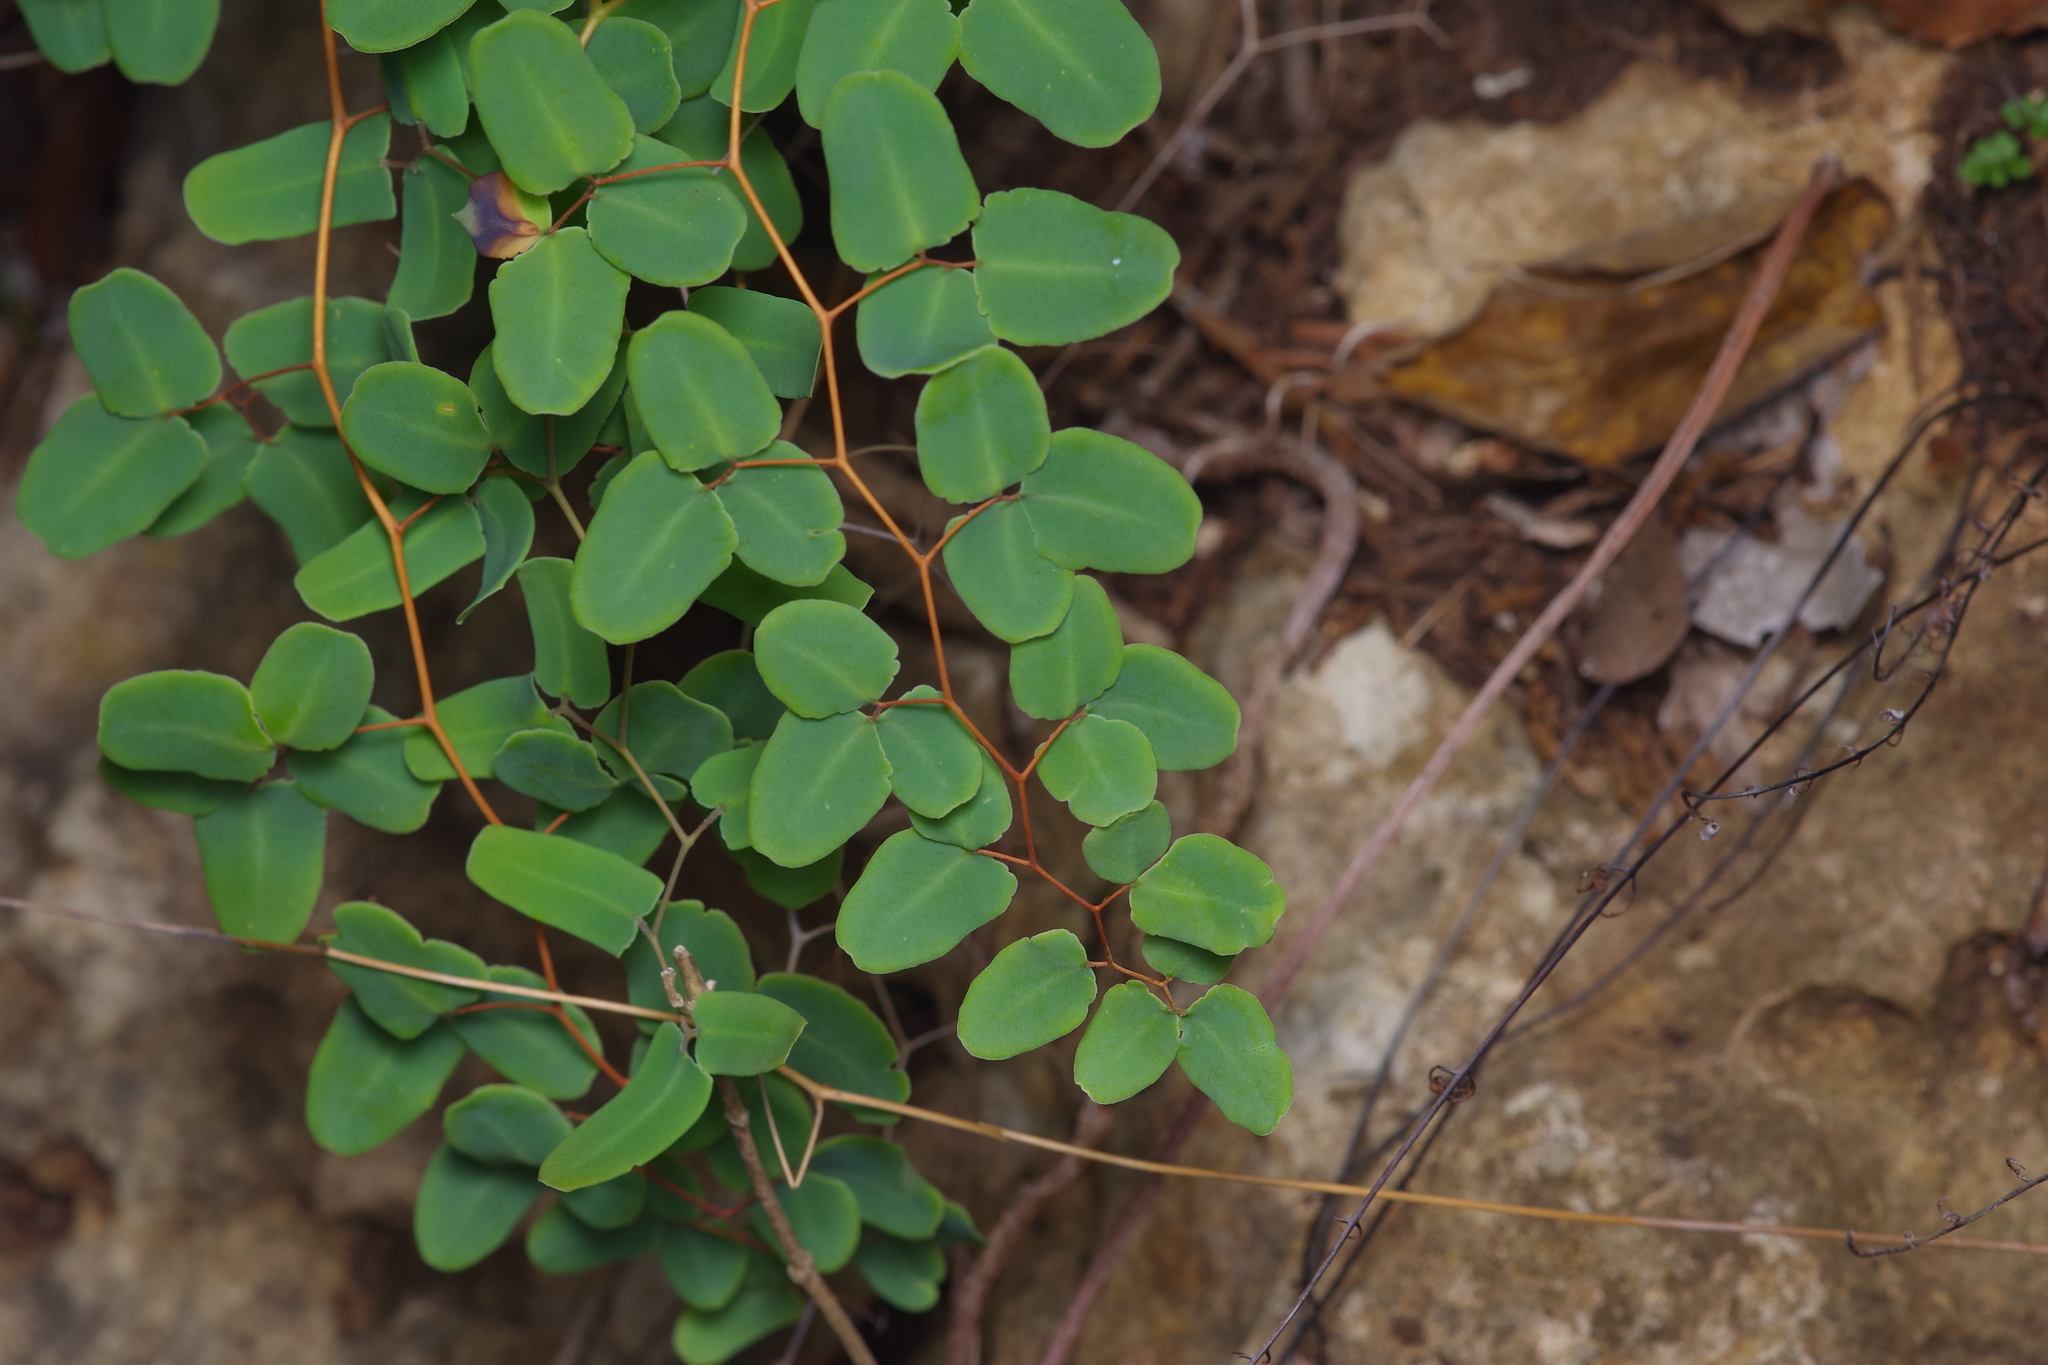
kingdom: Plantae
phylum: Tracheophyta
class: Polypodiopsida
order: Polypodiales
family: Pteridaceae
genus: Pellaea
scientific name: Pellaea ovata
